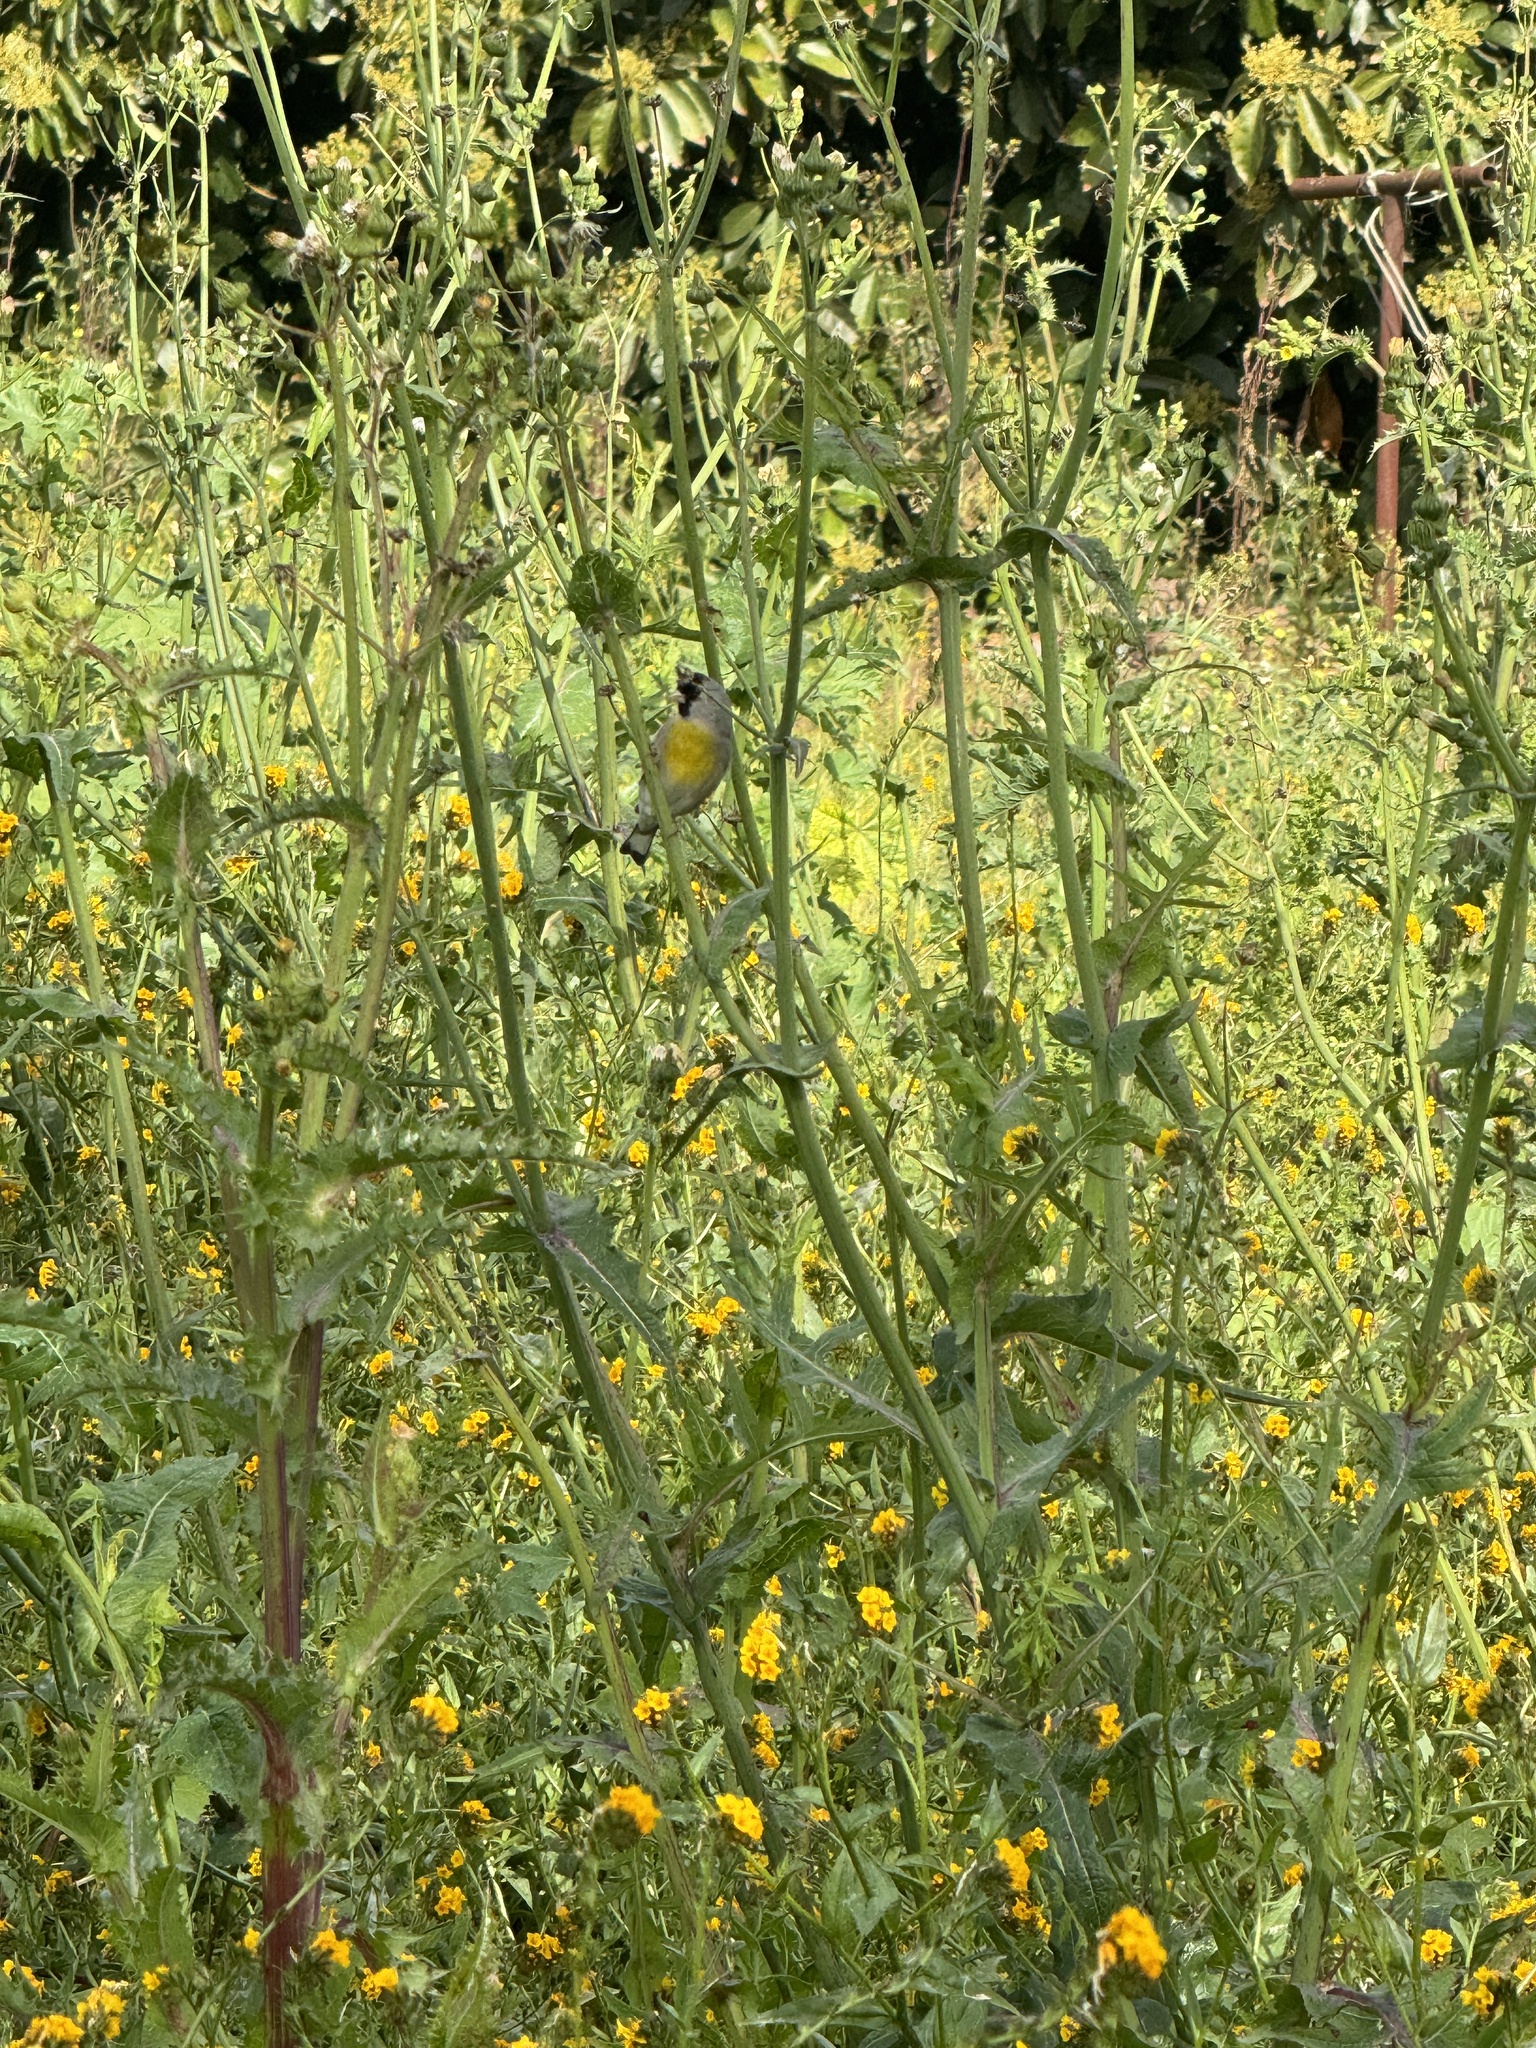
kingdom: Animalia
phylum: Chordata
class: Aves
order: Passeriformes
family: Fringillidae
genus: Spinus
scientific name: Spinus lawrencei
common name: Lawrence's goldfinch
